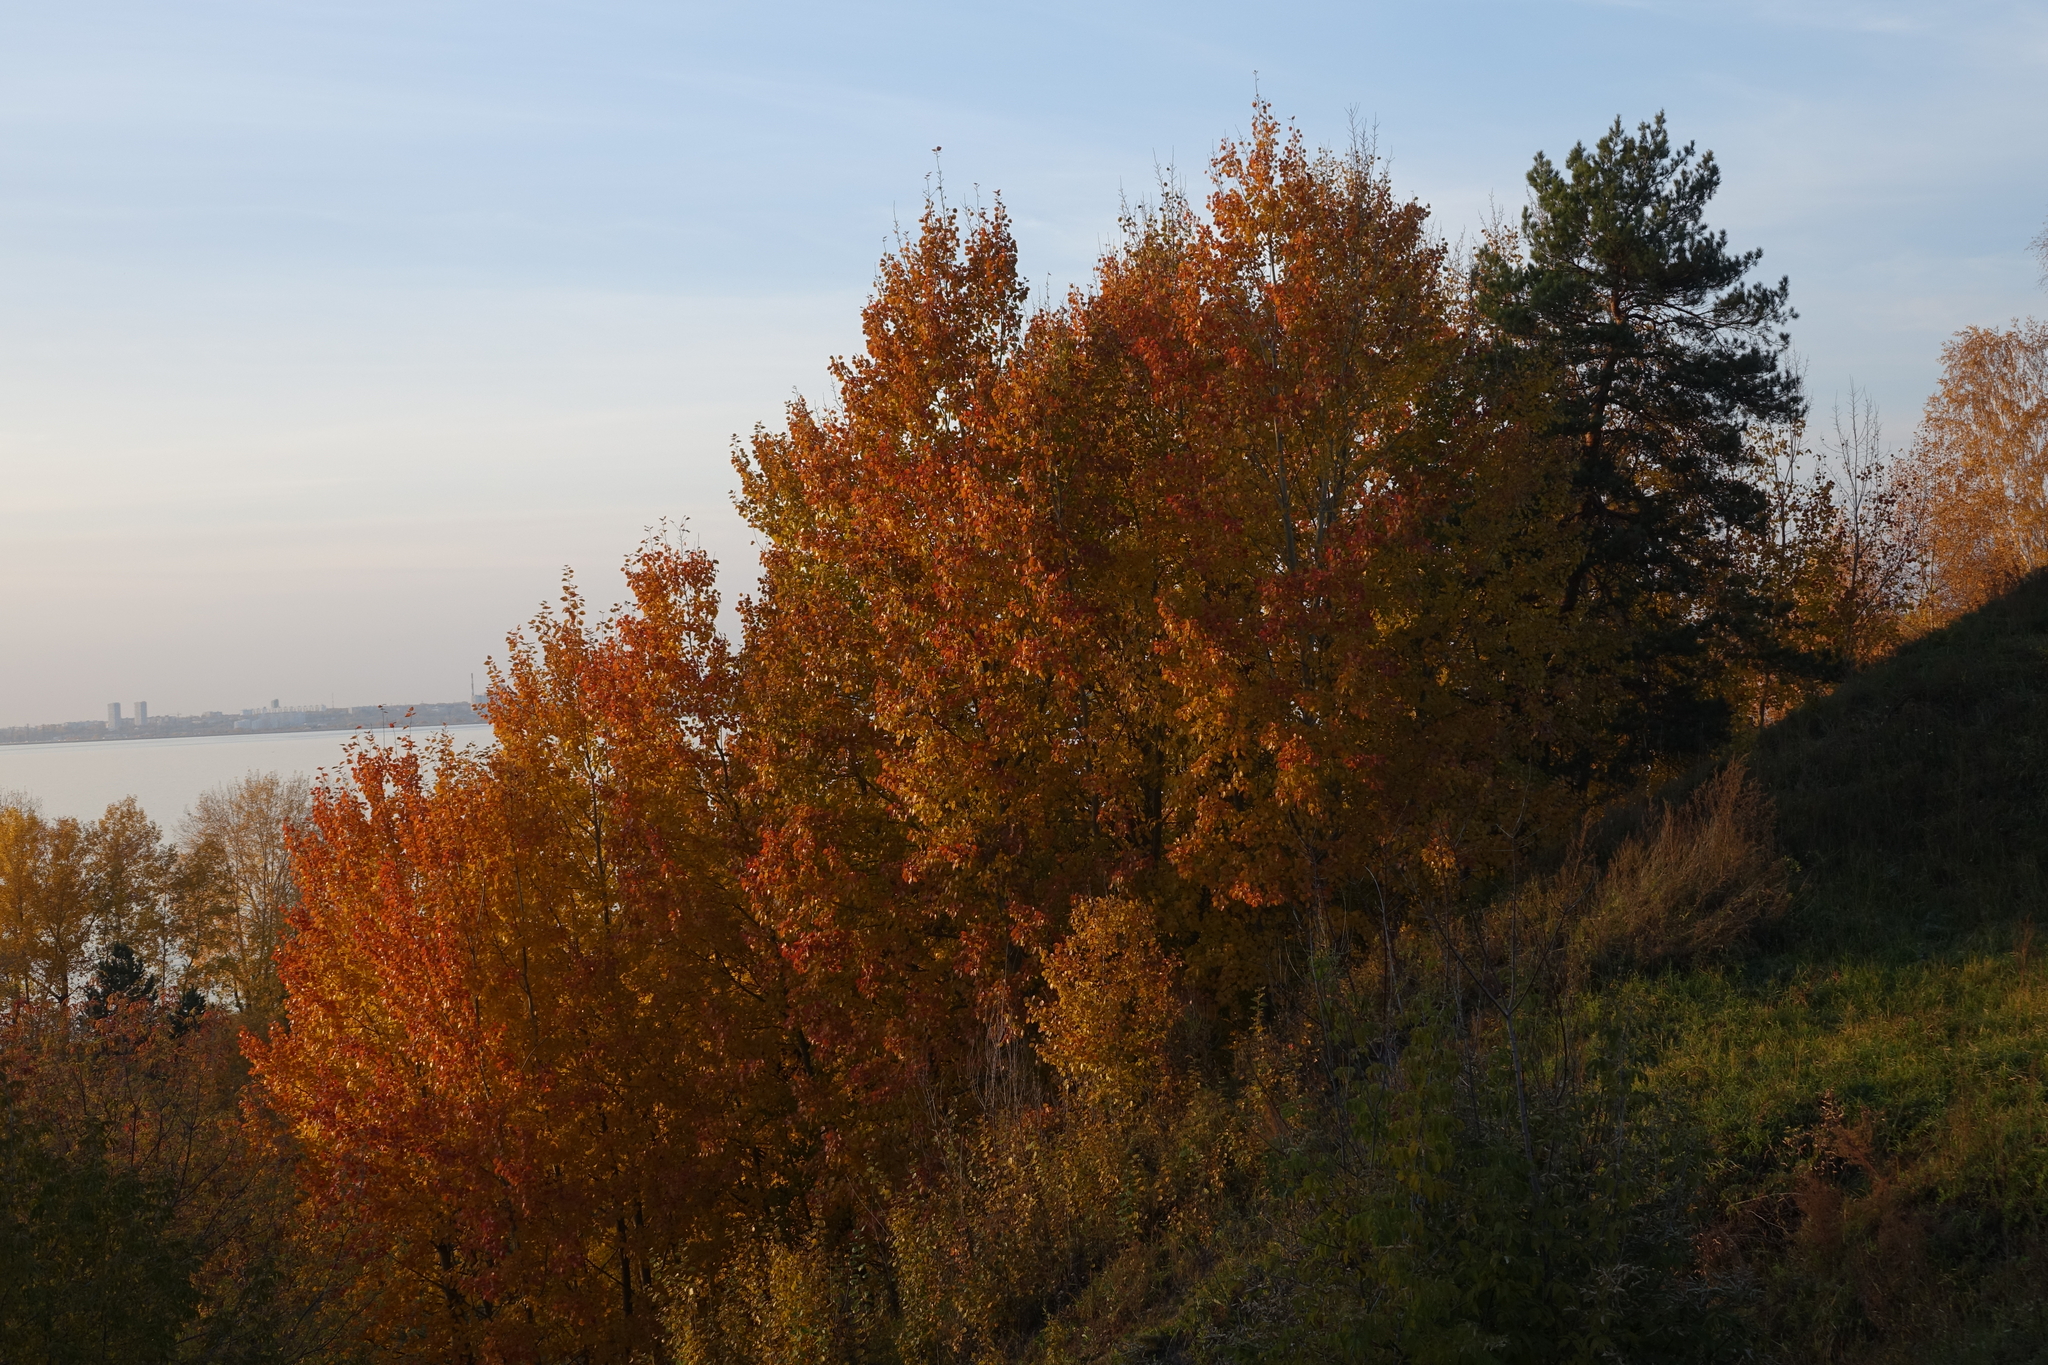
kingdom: Plantae
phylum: Tracheophyta
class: Magnoliopsida
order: Malpighiales
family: Salicaceae
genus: Populus
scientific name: Populus tremula
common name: European aspen
